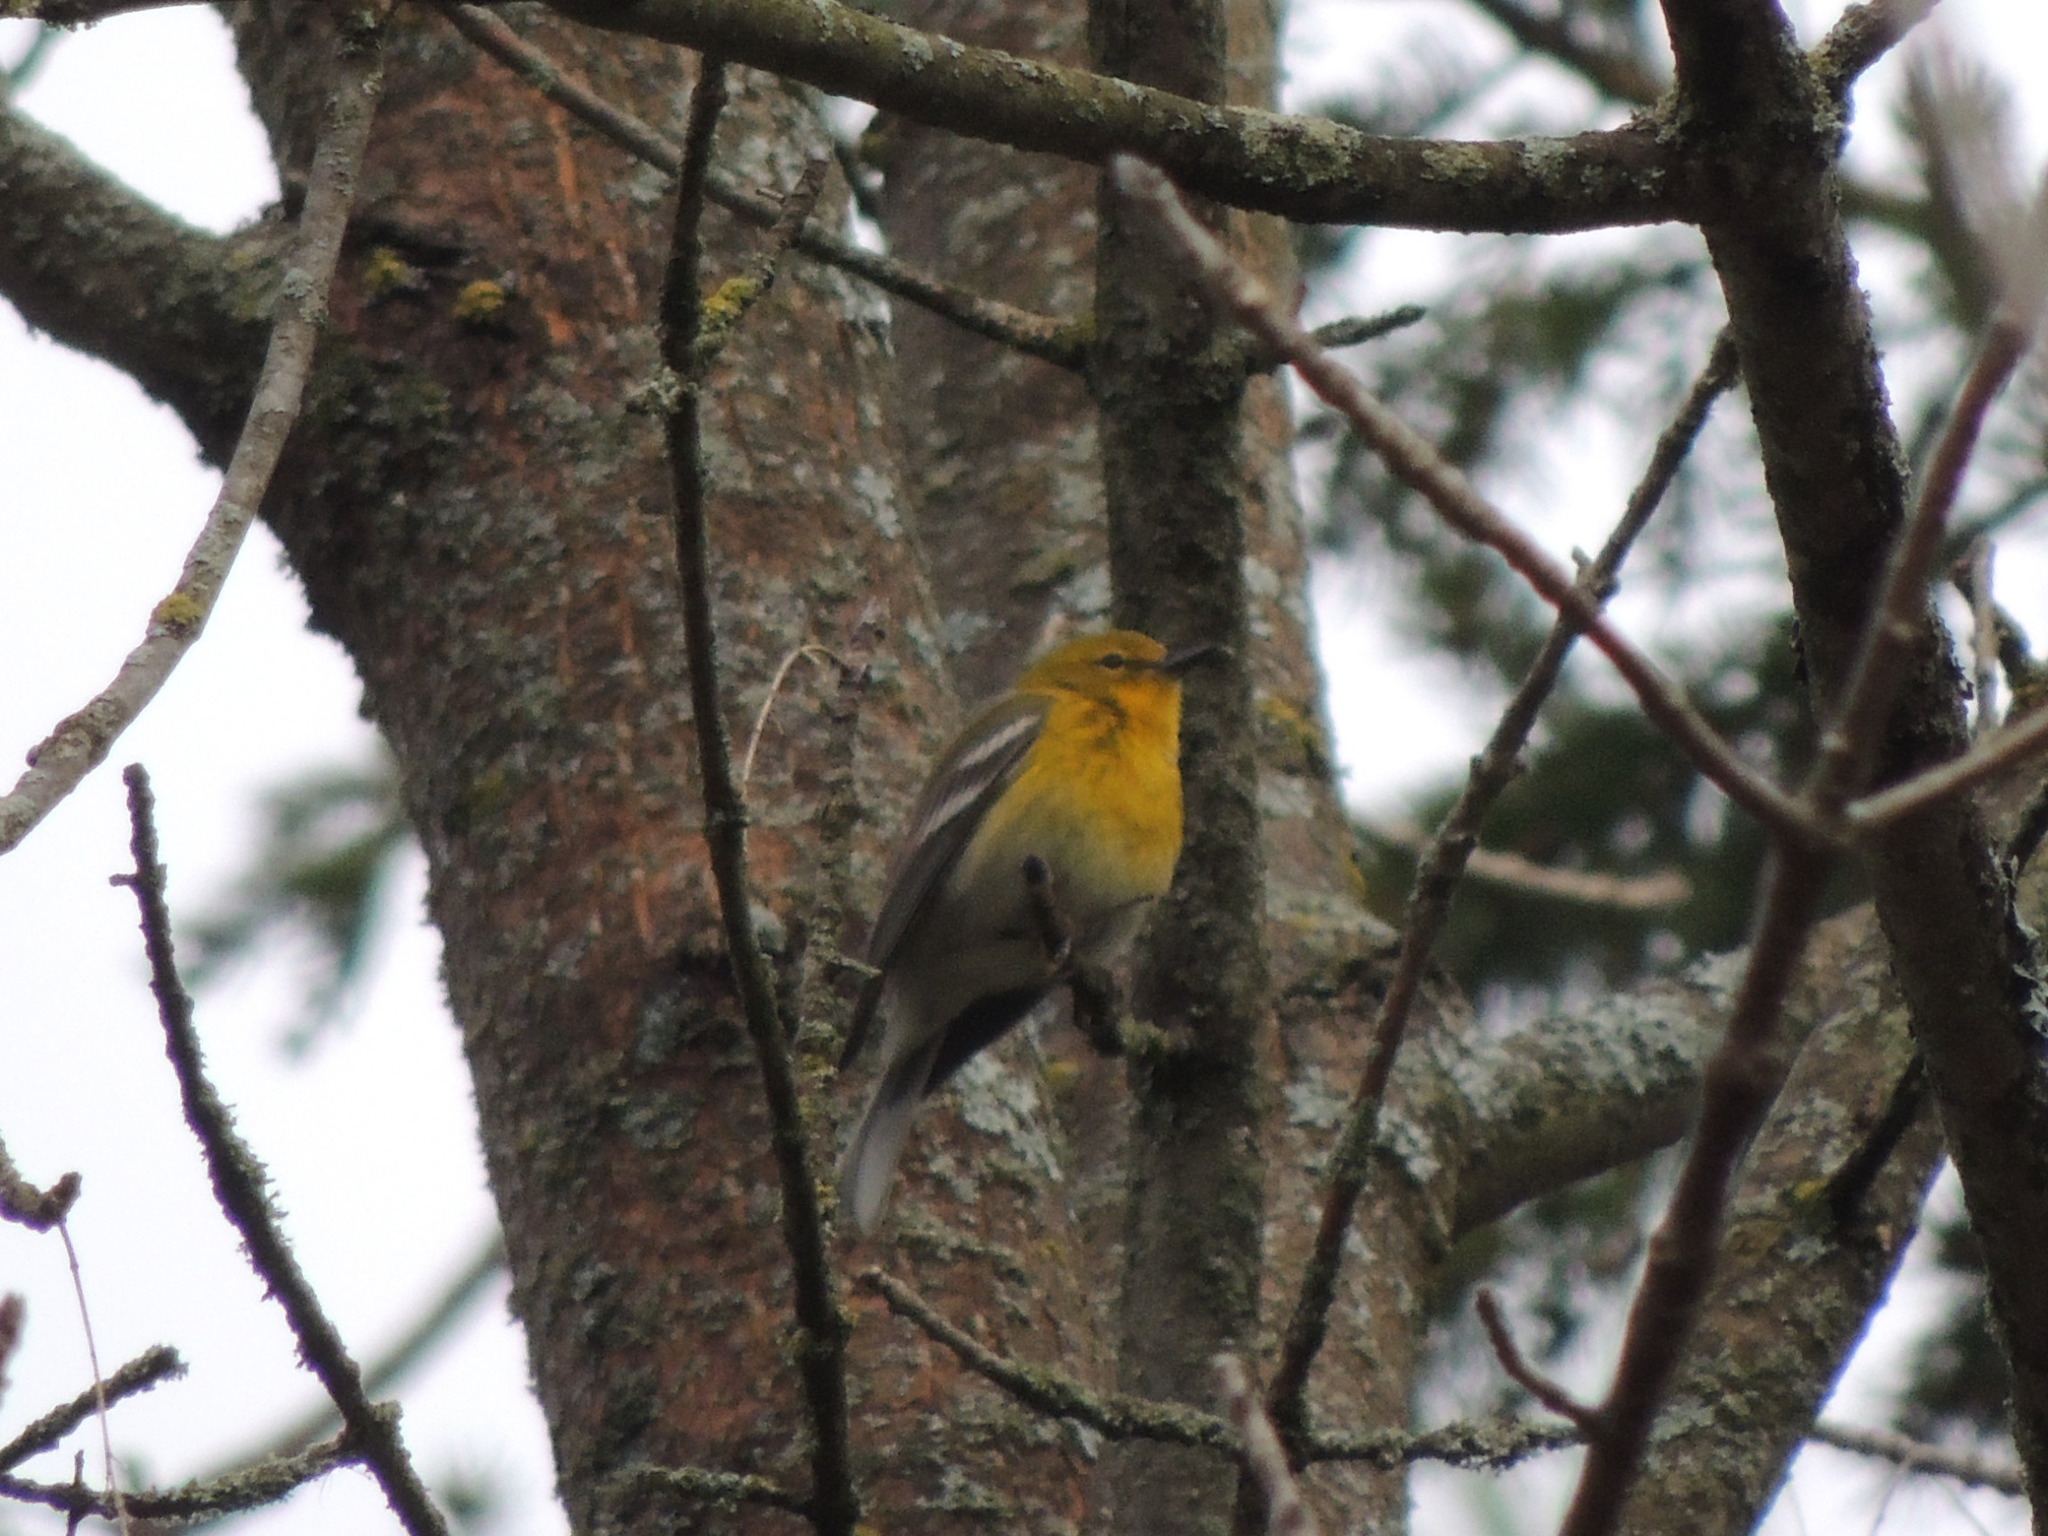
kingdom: Animalia
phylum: Chordata
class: Aves
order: Passeriformes
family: Parulidae
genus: Setophaga
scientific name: Setophaga pinus
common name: Pine warbler
